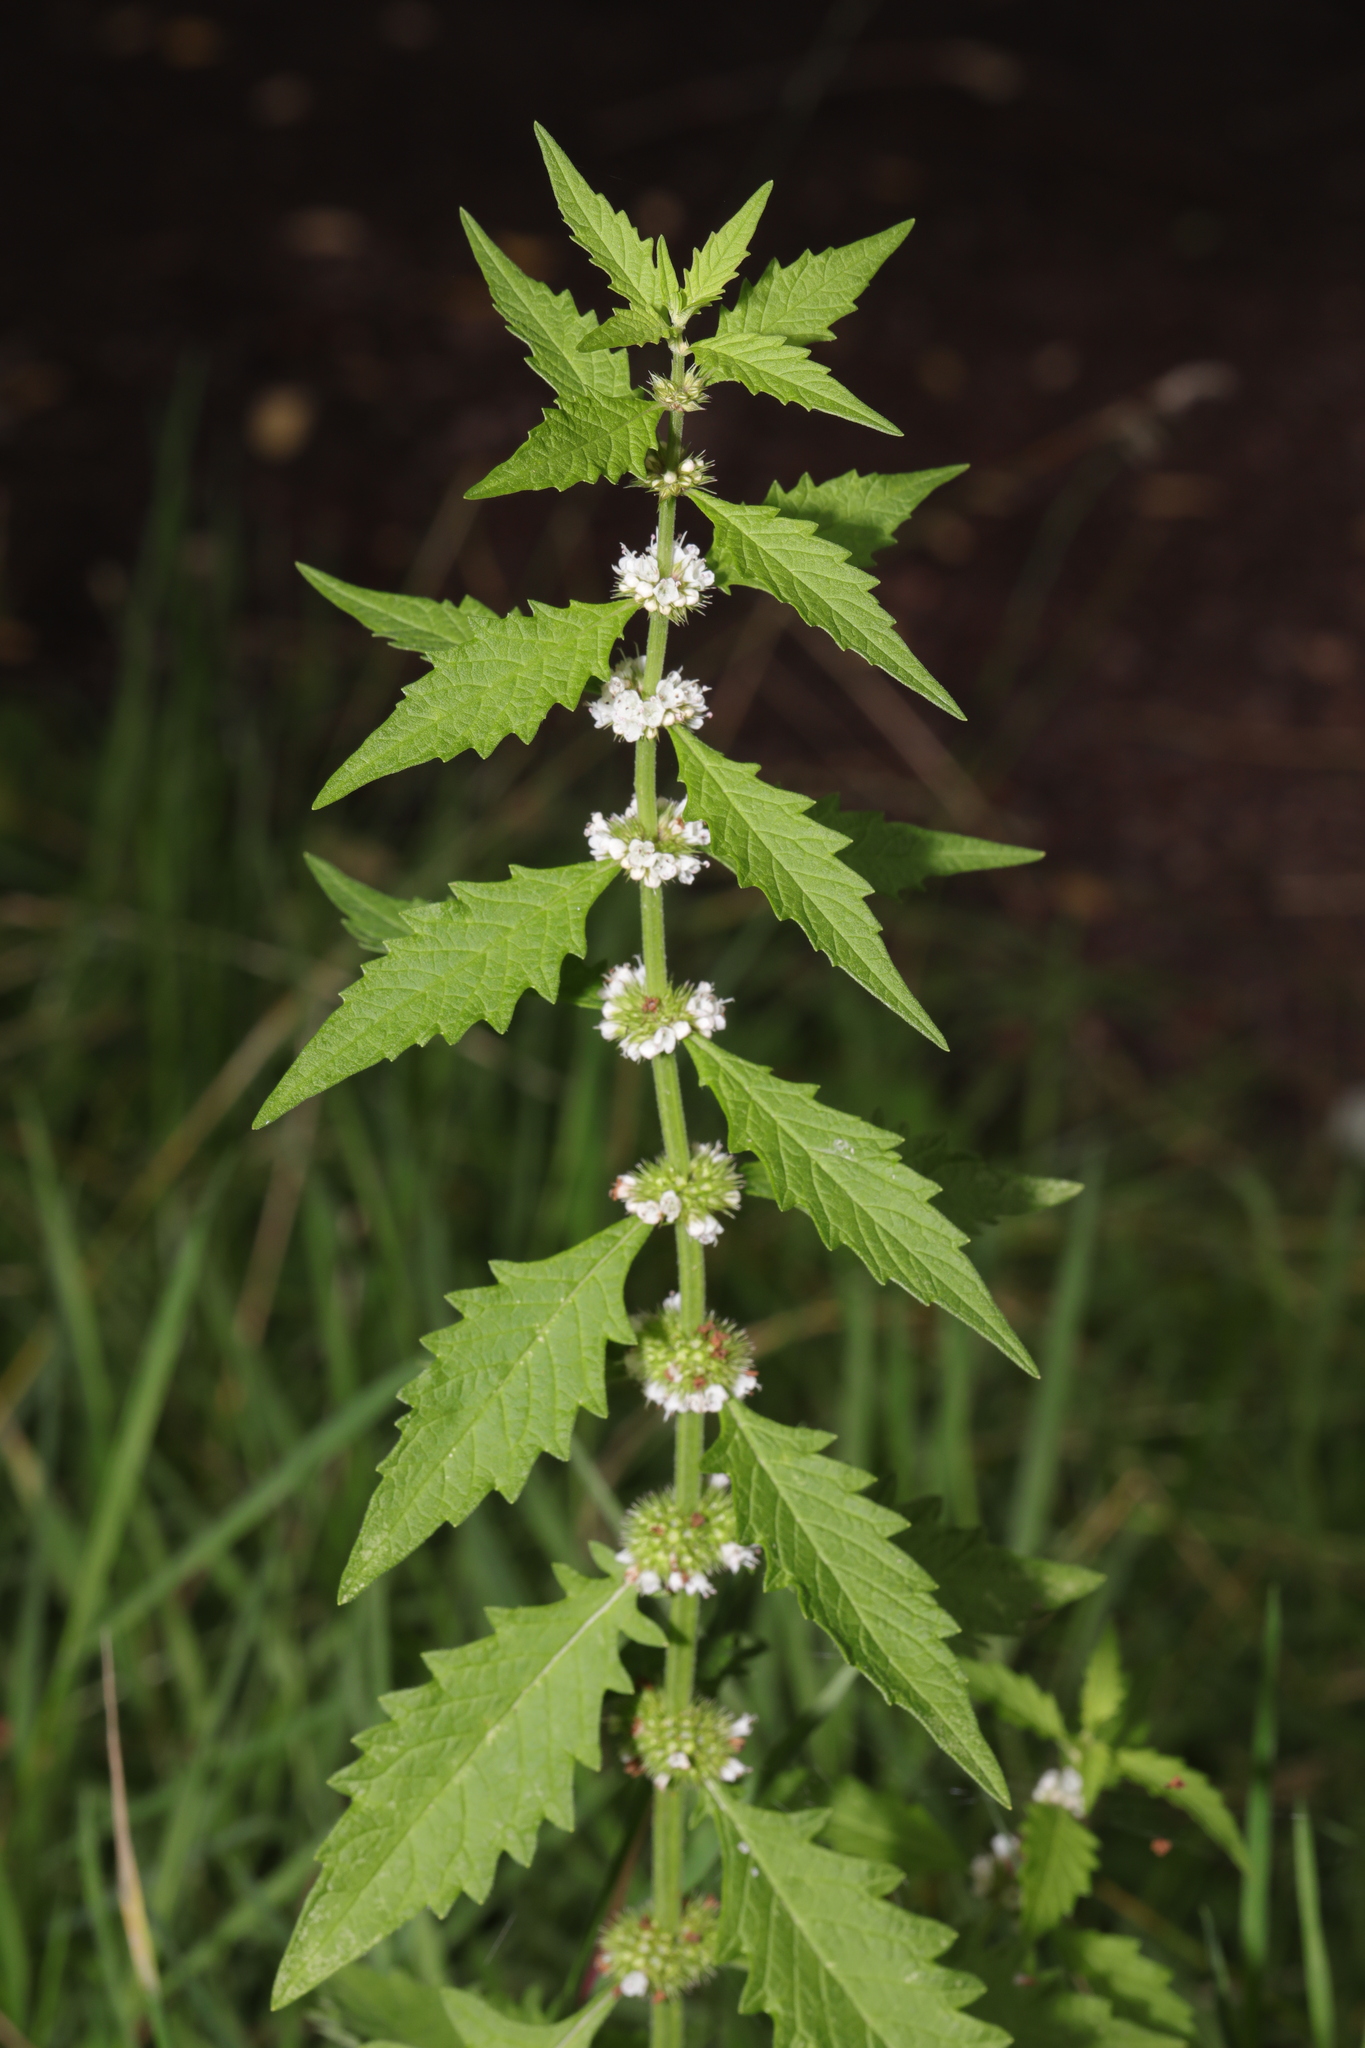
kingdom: Plantae
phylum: Tracheophyta
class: Magnoliopsida
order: Lamiales
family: Lamiaceae
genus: Lycopus
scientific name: Lycopus europaeus
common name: European bugleweed
